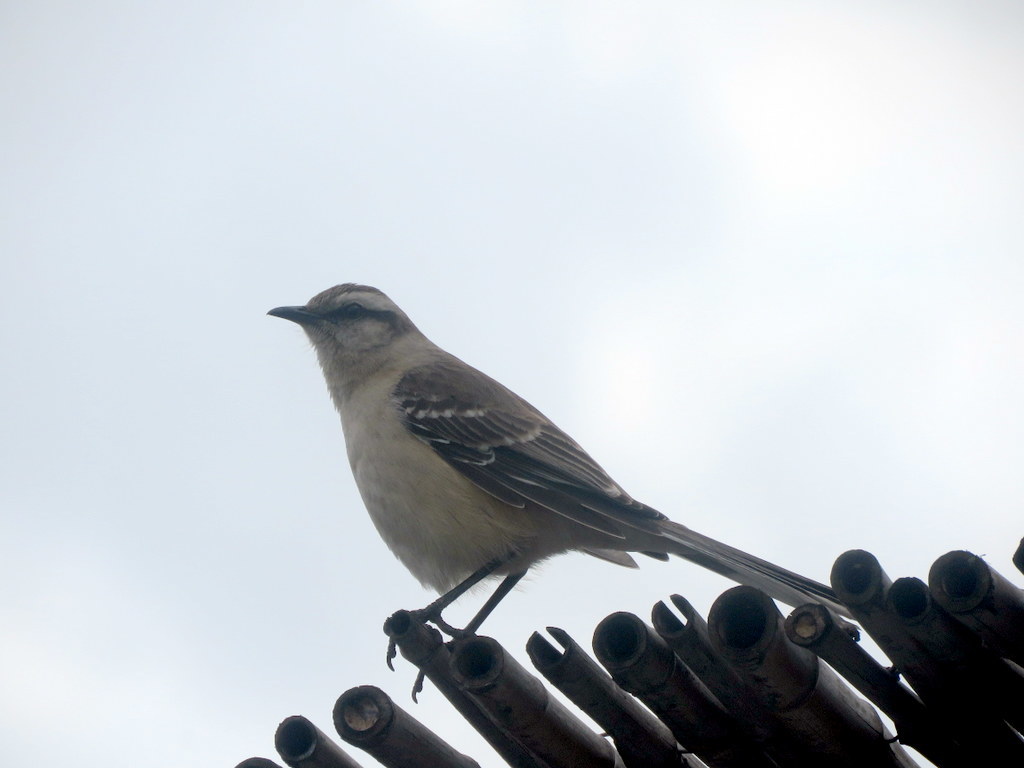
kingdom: Animalia
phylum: Chordata
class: Aves
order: Passeriformes
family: Mimidae
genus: Mimus
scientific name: Mimus saturninus
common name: Chalk-browed mockingbird
